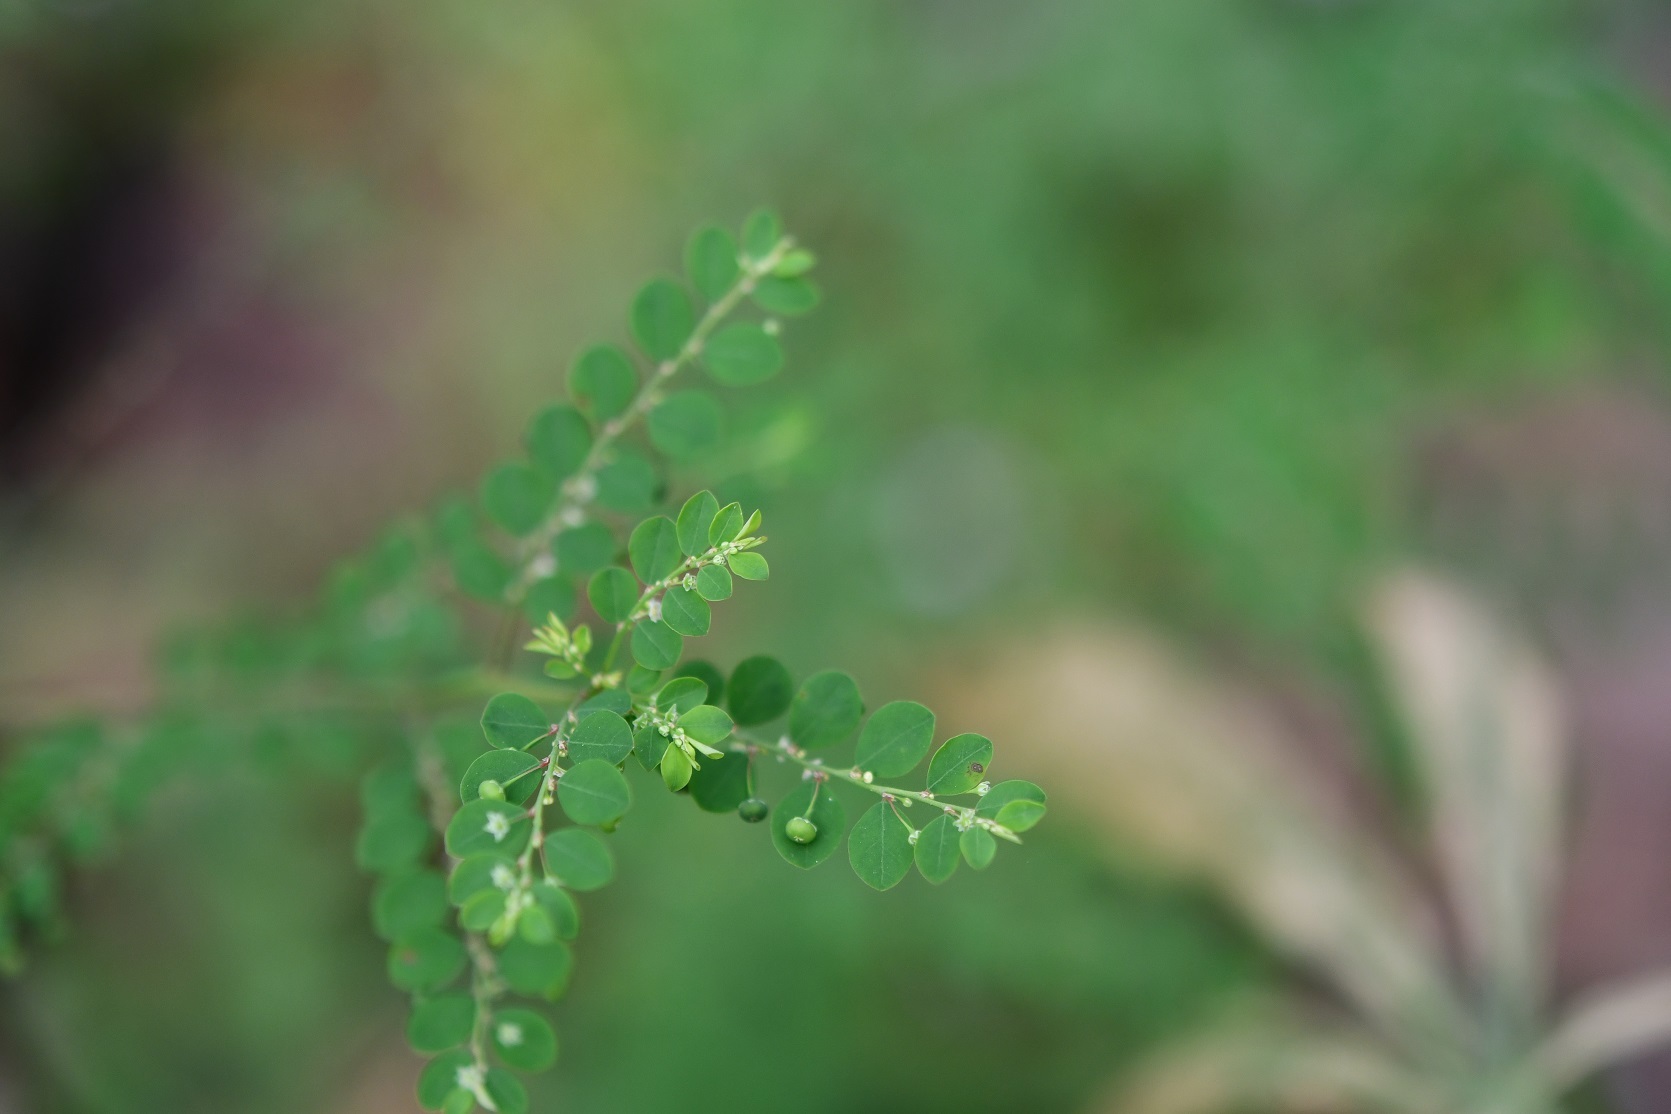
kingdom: Plantae
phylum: Tracheophyta
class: Magnoliopsida
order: Malpighiales
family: Phyllanthaceae
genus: Phyllanthus
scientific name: Phyllanthus tenellus
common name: Mascarene island leaf-flower
